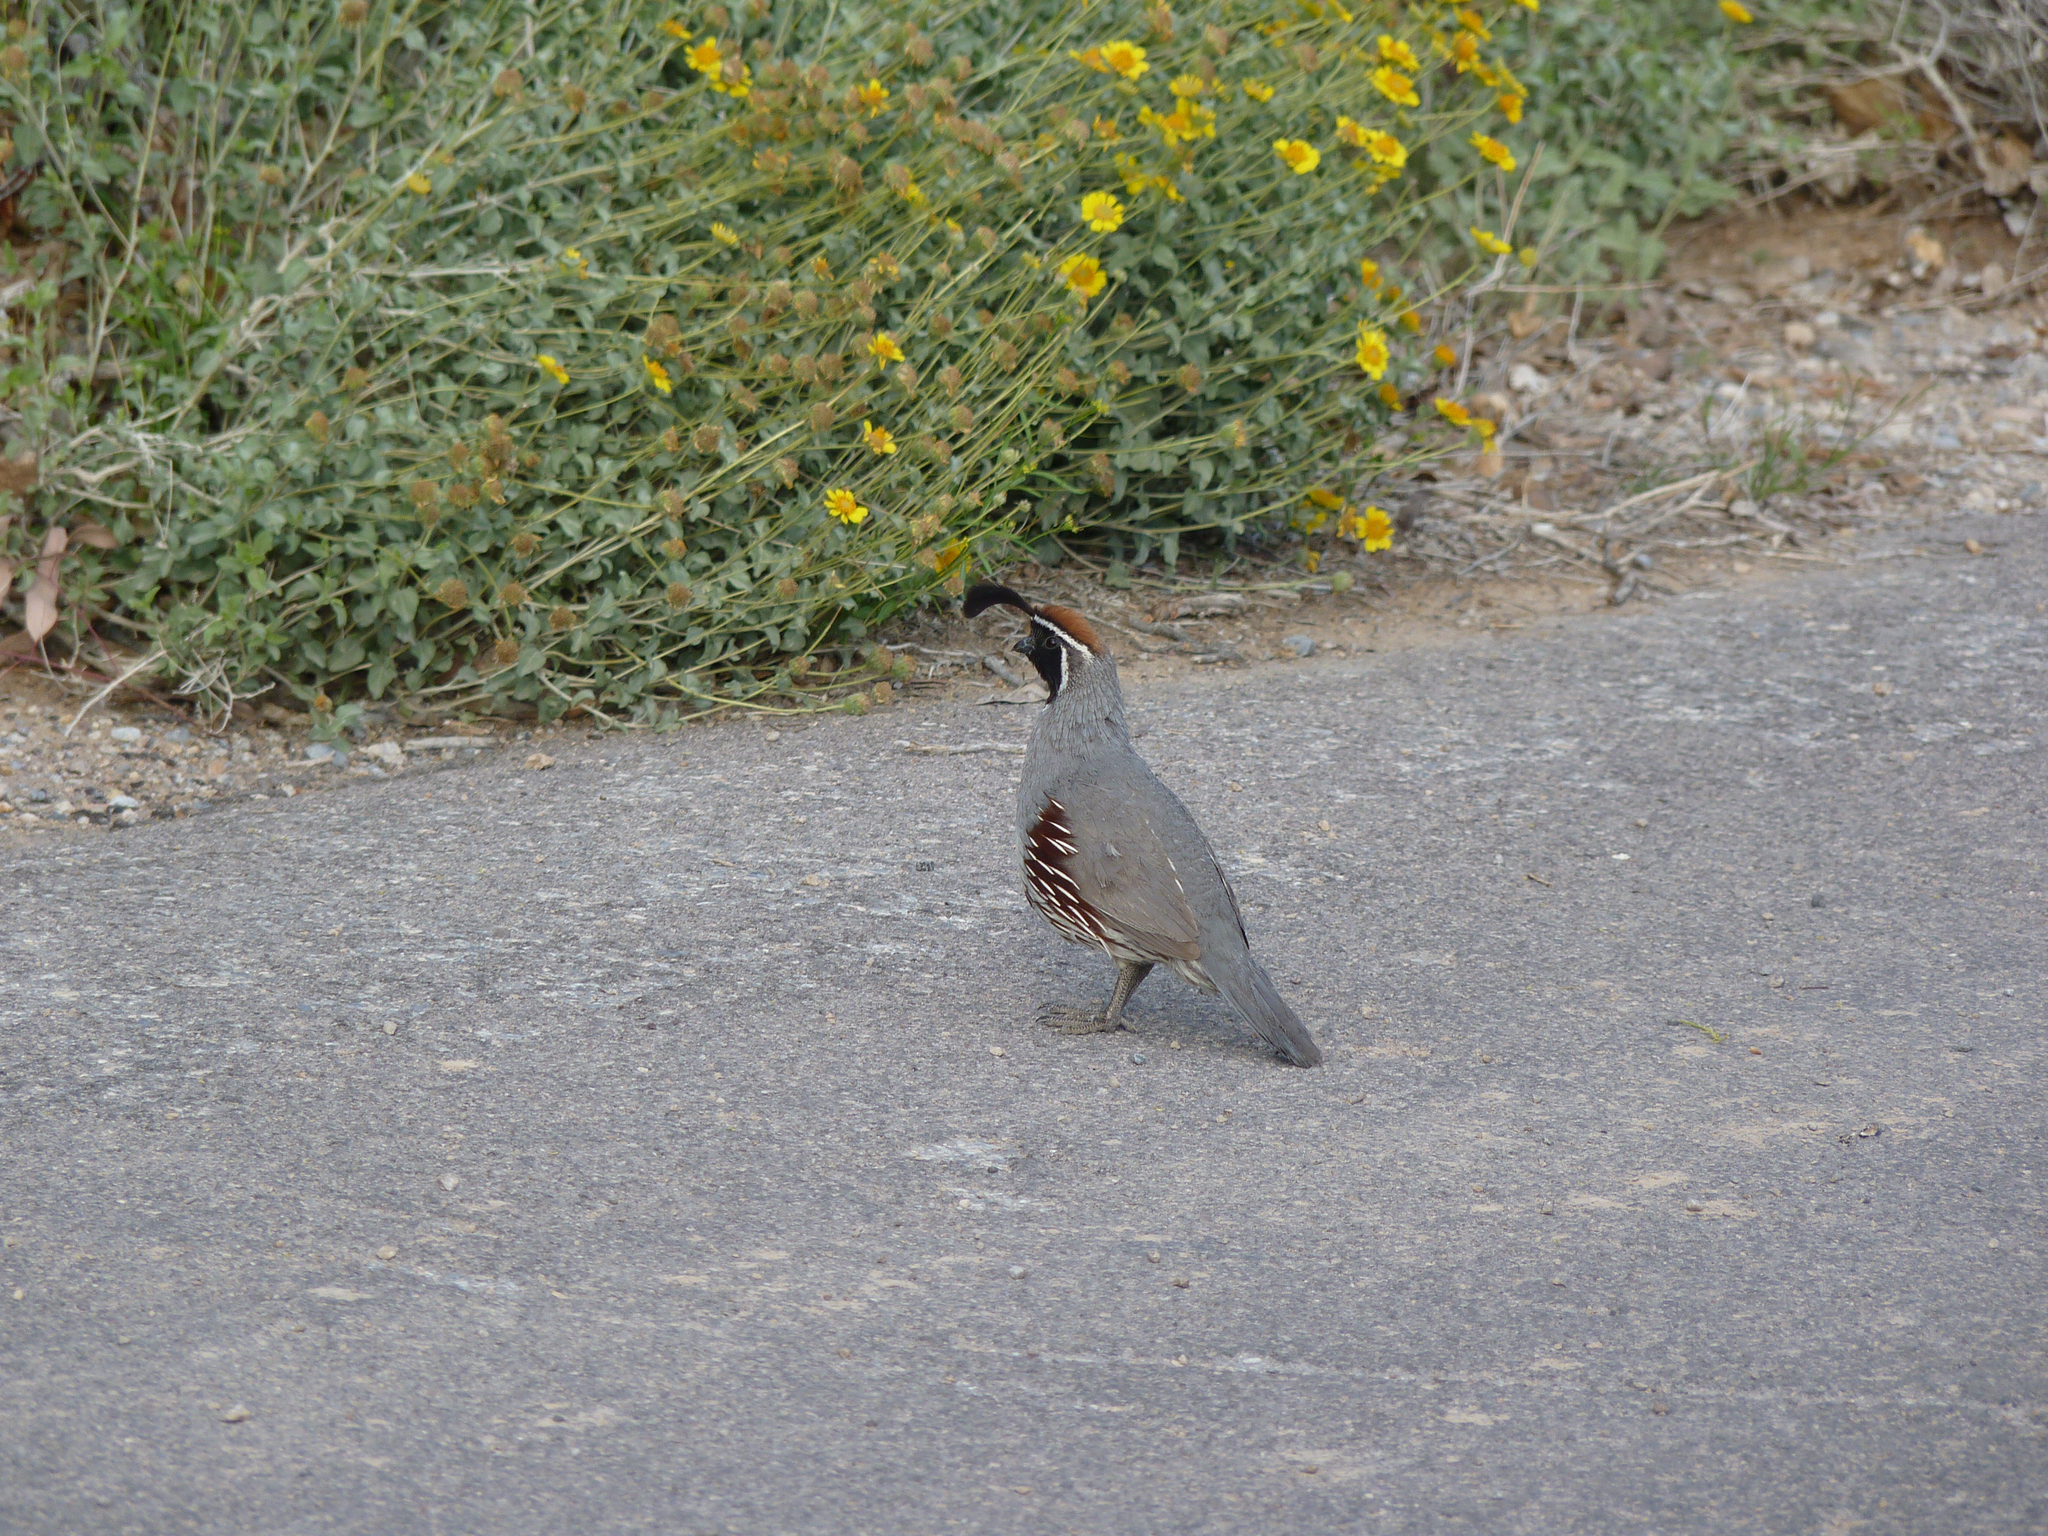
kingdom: Animalia
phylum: Chordata
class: Aves
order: Galliformes
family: Odontophoridae
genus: Callipepla
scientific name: Callipepla gambelii
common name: Gambel's quail
